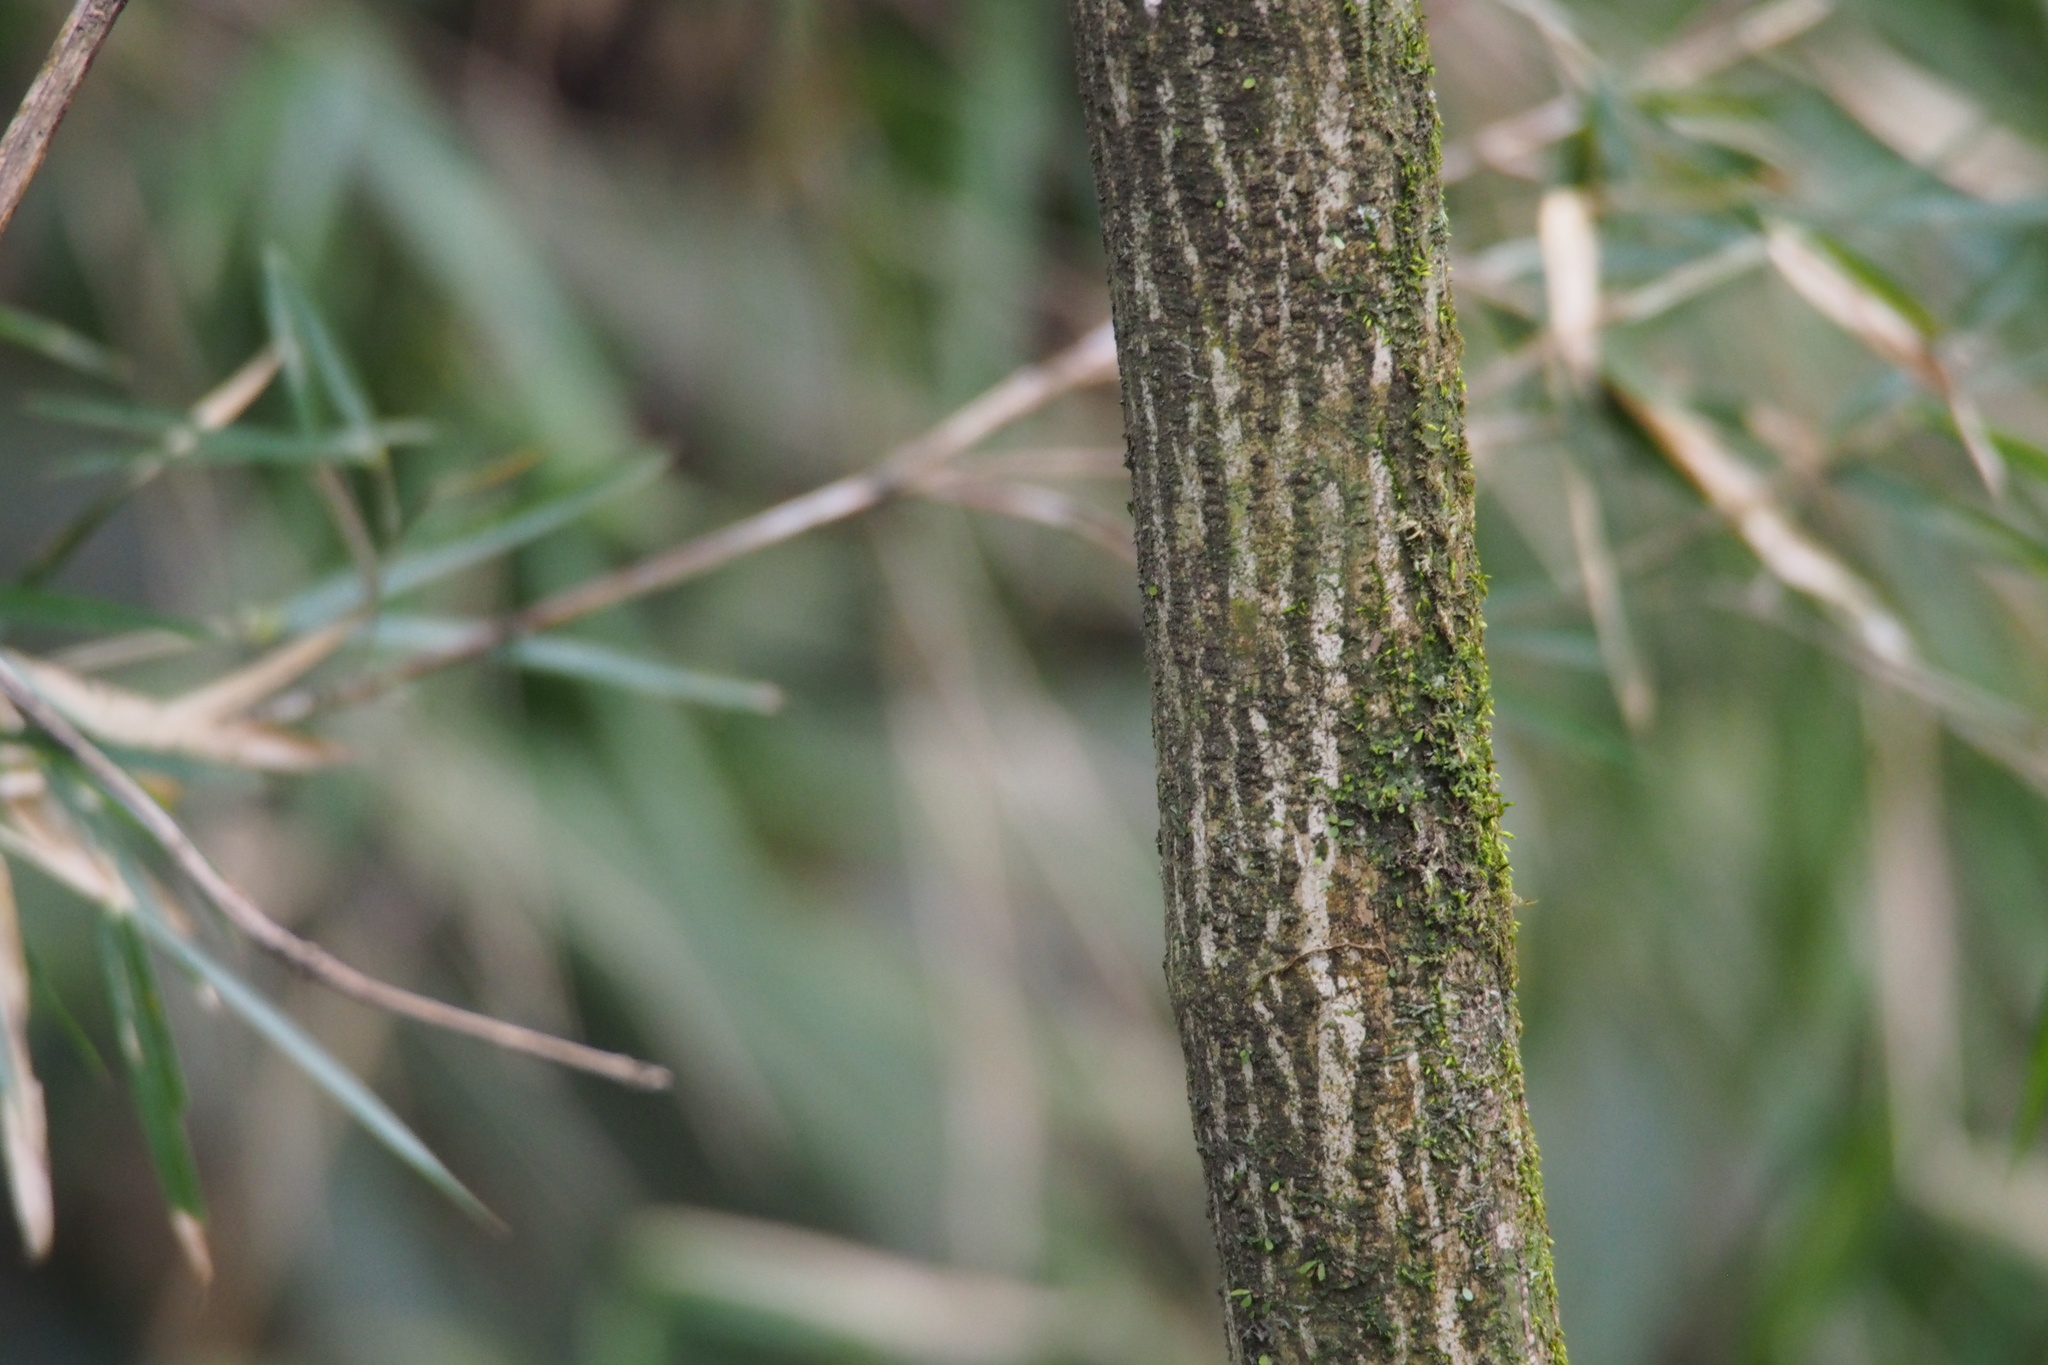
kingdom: Plantae
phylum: Tracheophyta
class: Magnoliopsida
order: Garryales
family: Garryaceae
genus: Aucuba
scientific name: Aucuba japonica
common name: Spotted-laurel
